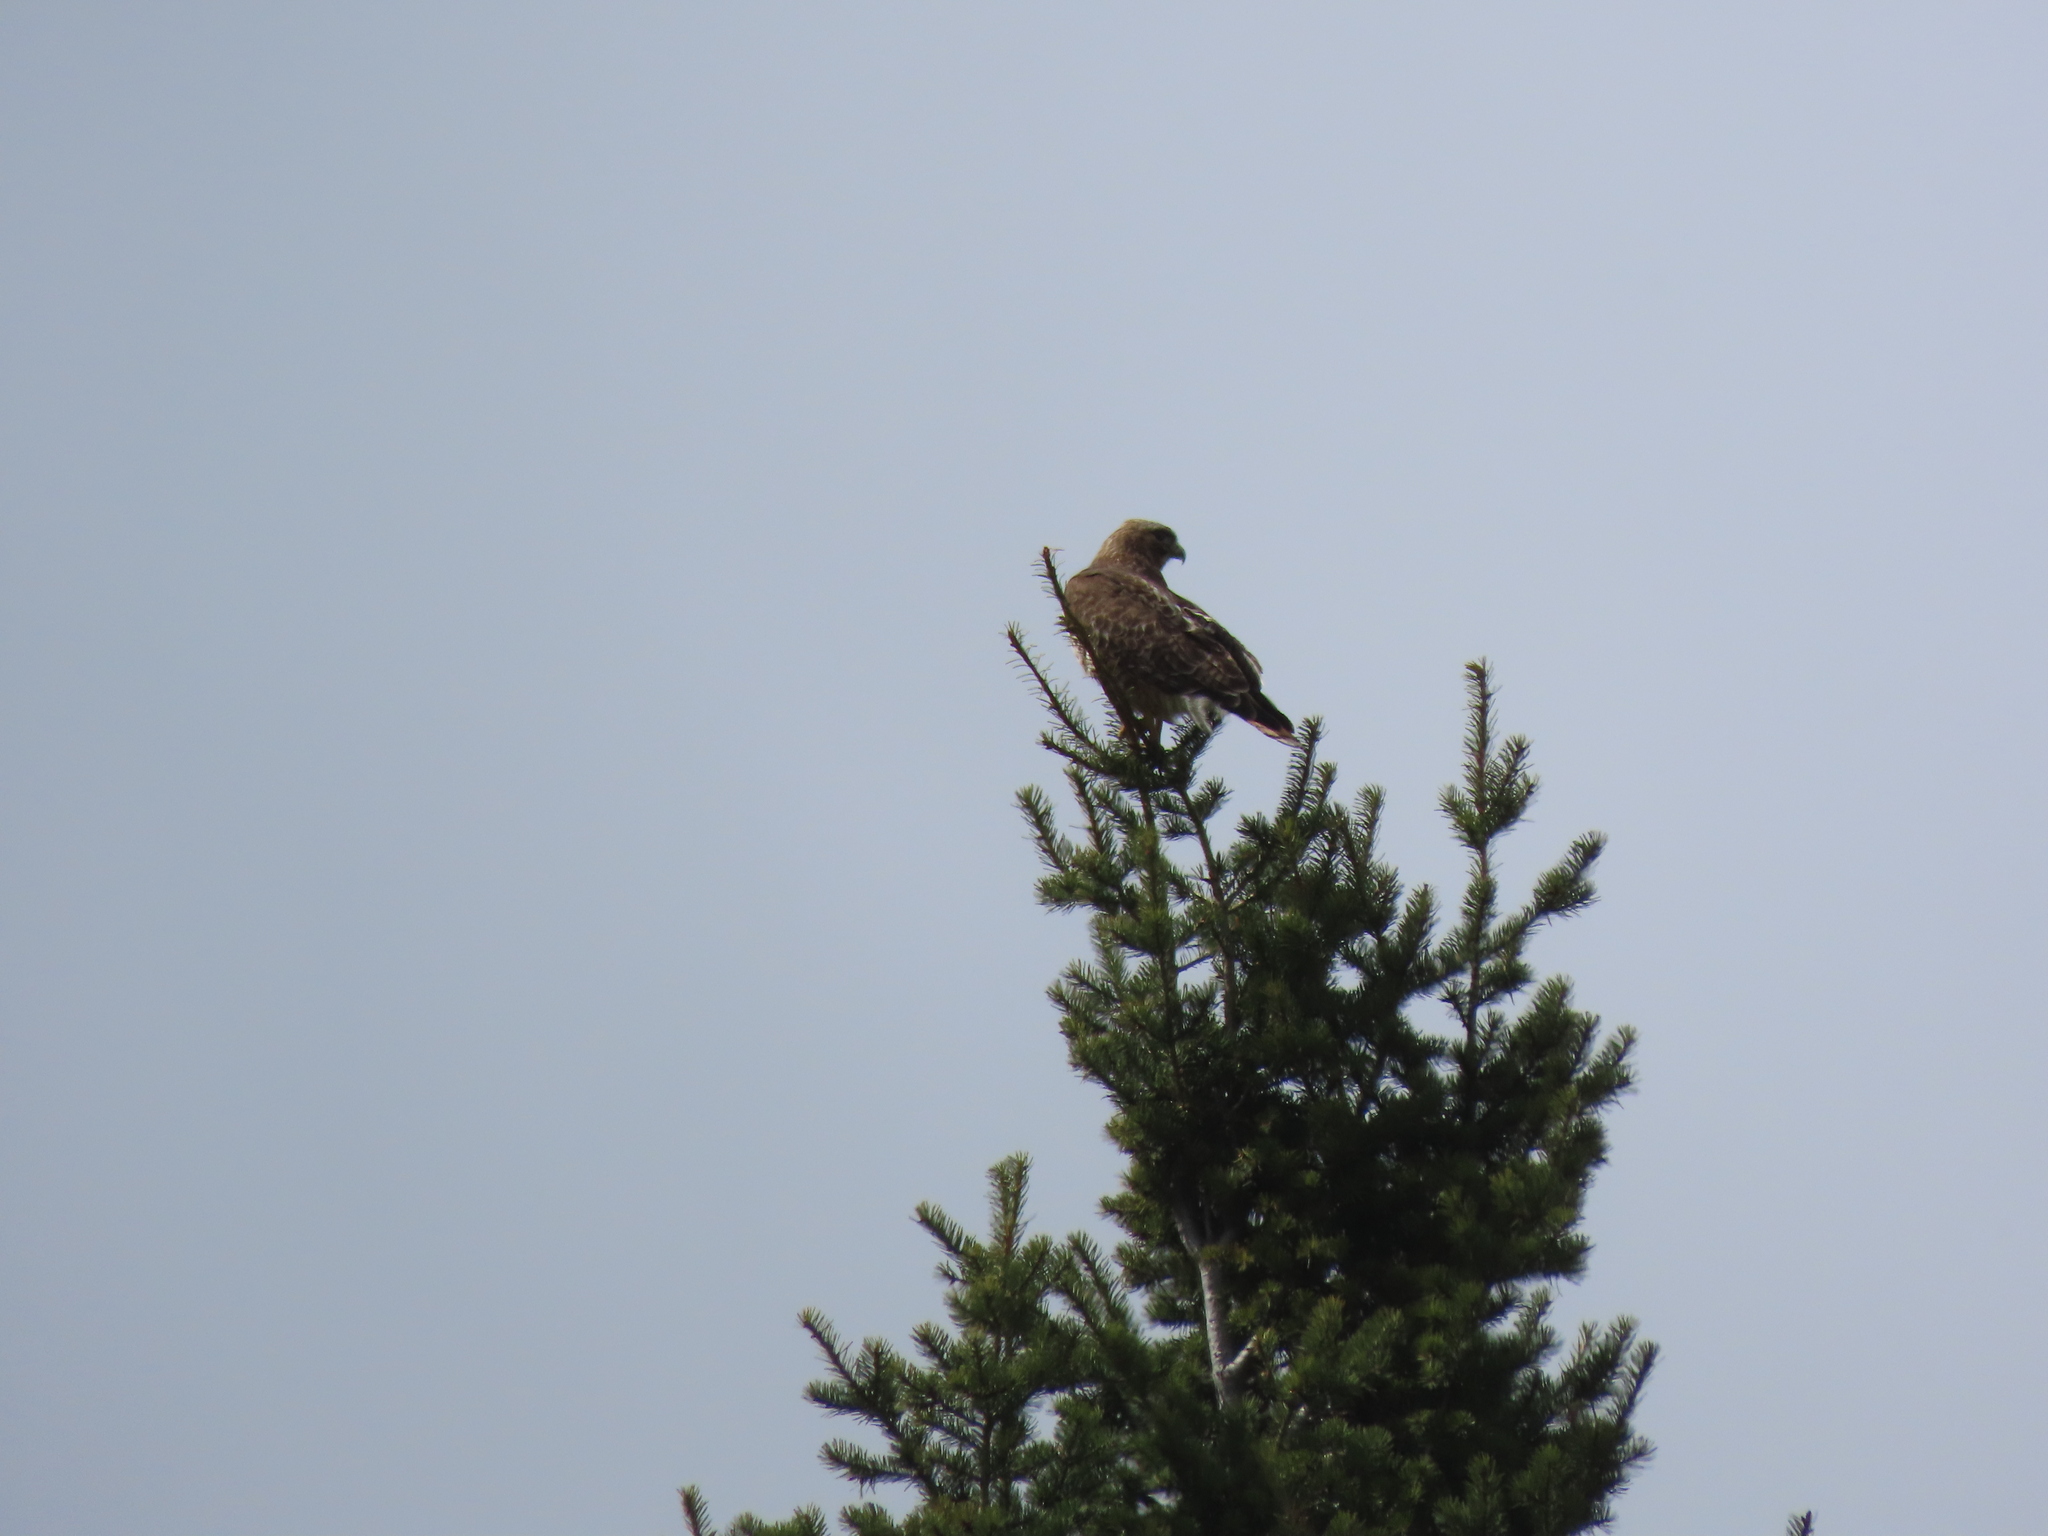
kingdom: Animalia
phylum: Chordata
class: Aves
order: Accipitriformes
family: Accipitridae
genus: Buteo
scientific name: Buteo jamaicensis
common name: Red-tailed hawk
